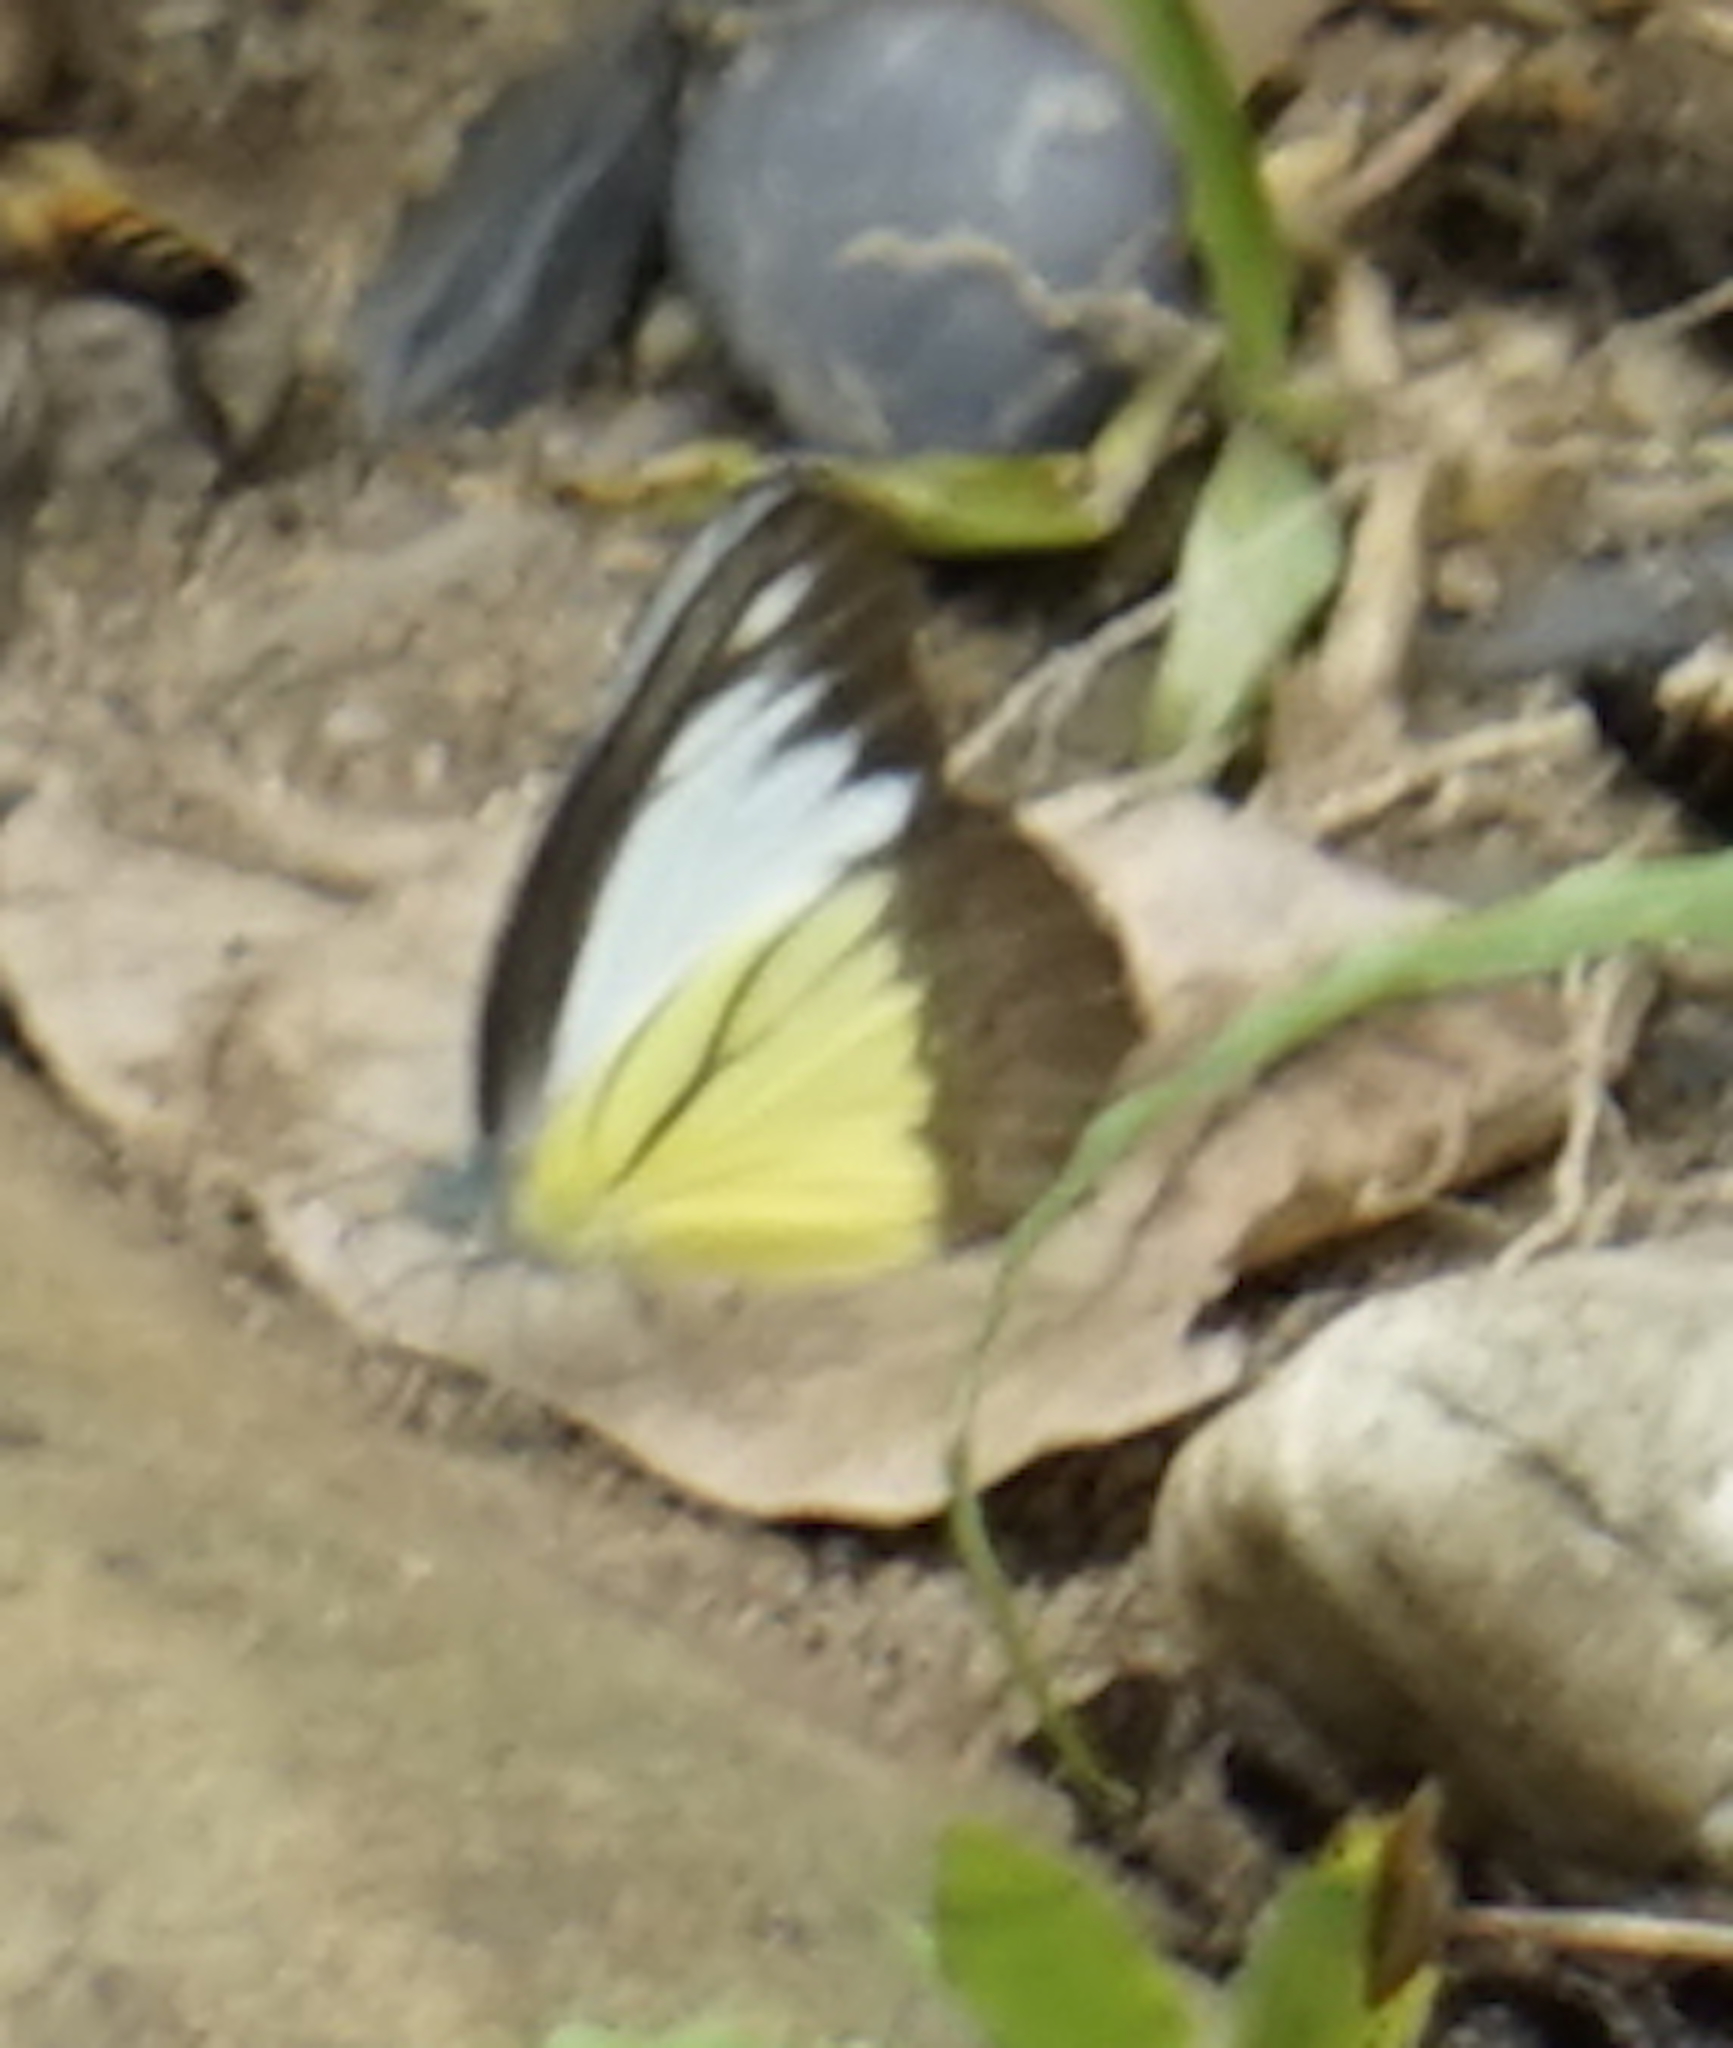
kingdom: Animalia
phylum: Arthropoda
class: Insecta
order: Lepidoptera
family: Pieridae
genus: Appias
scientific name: Appias lyncida
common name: Chocolate albatross
